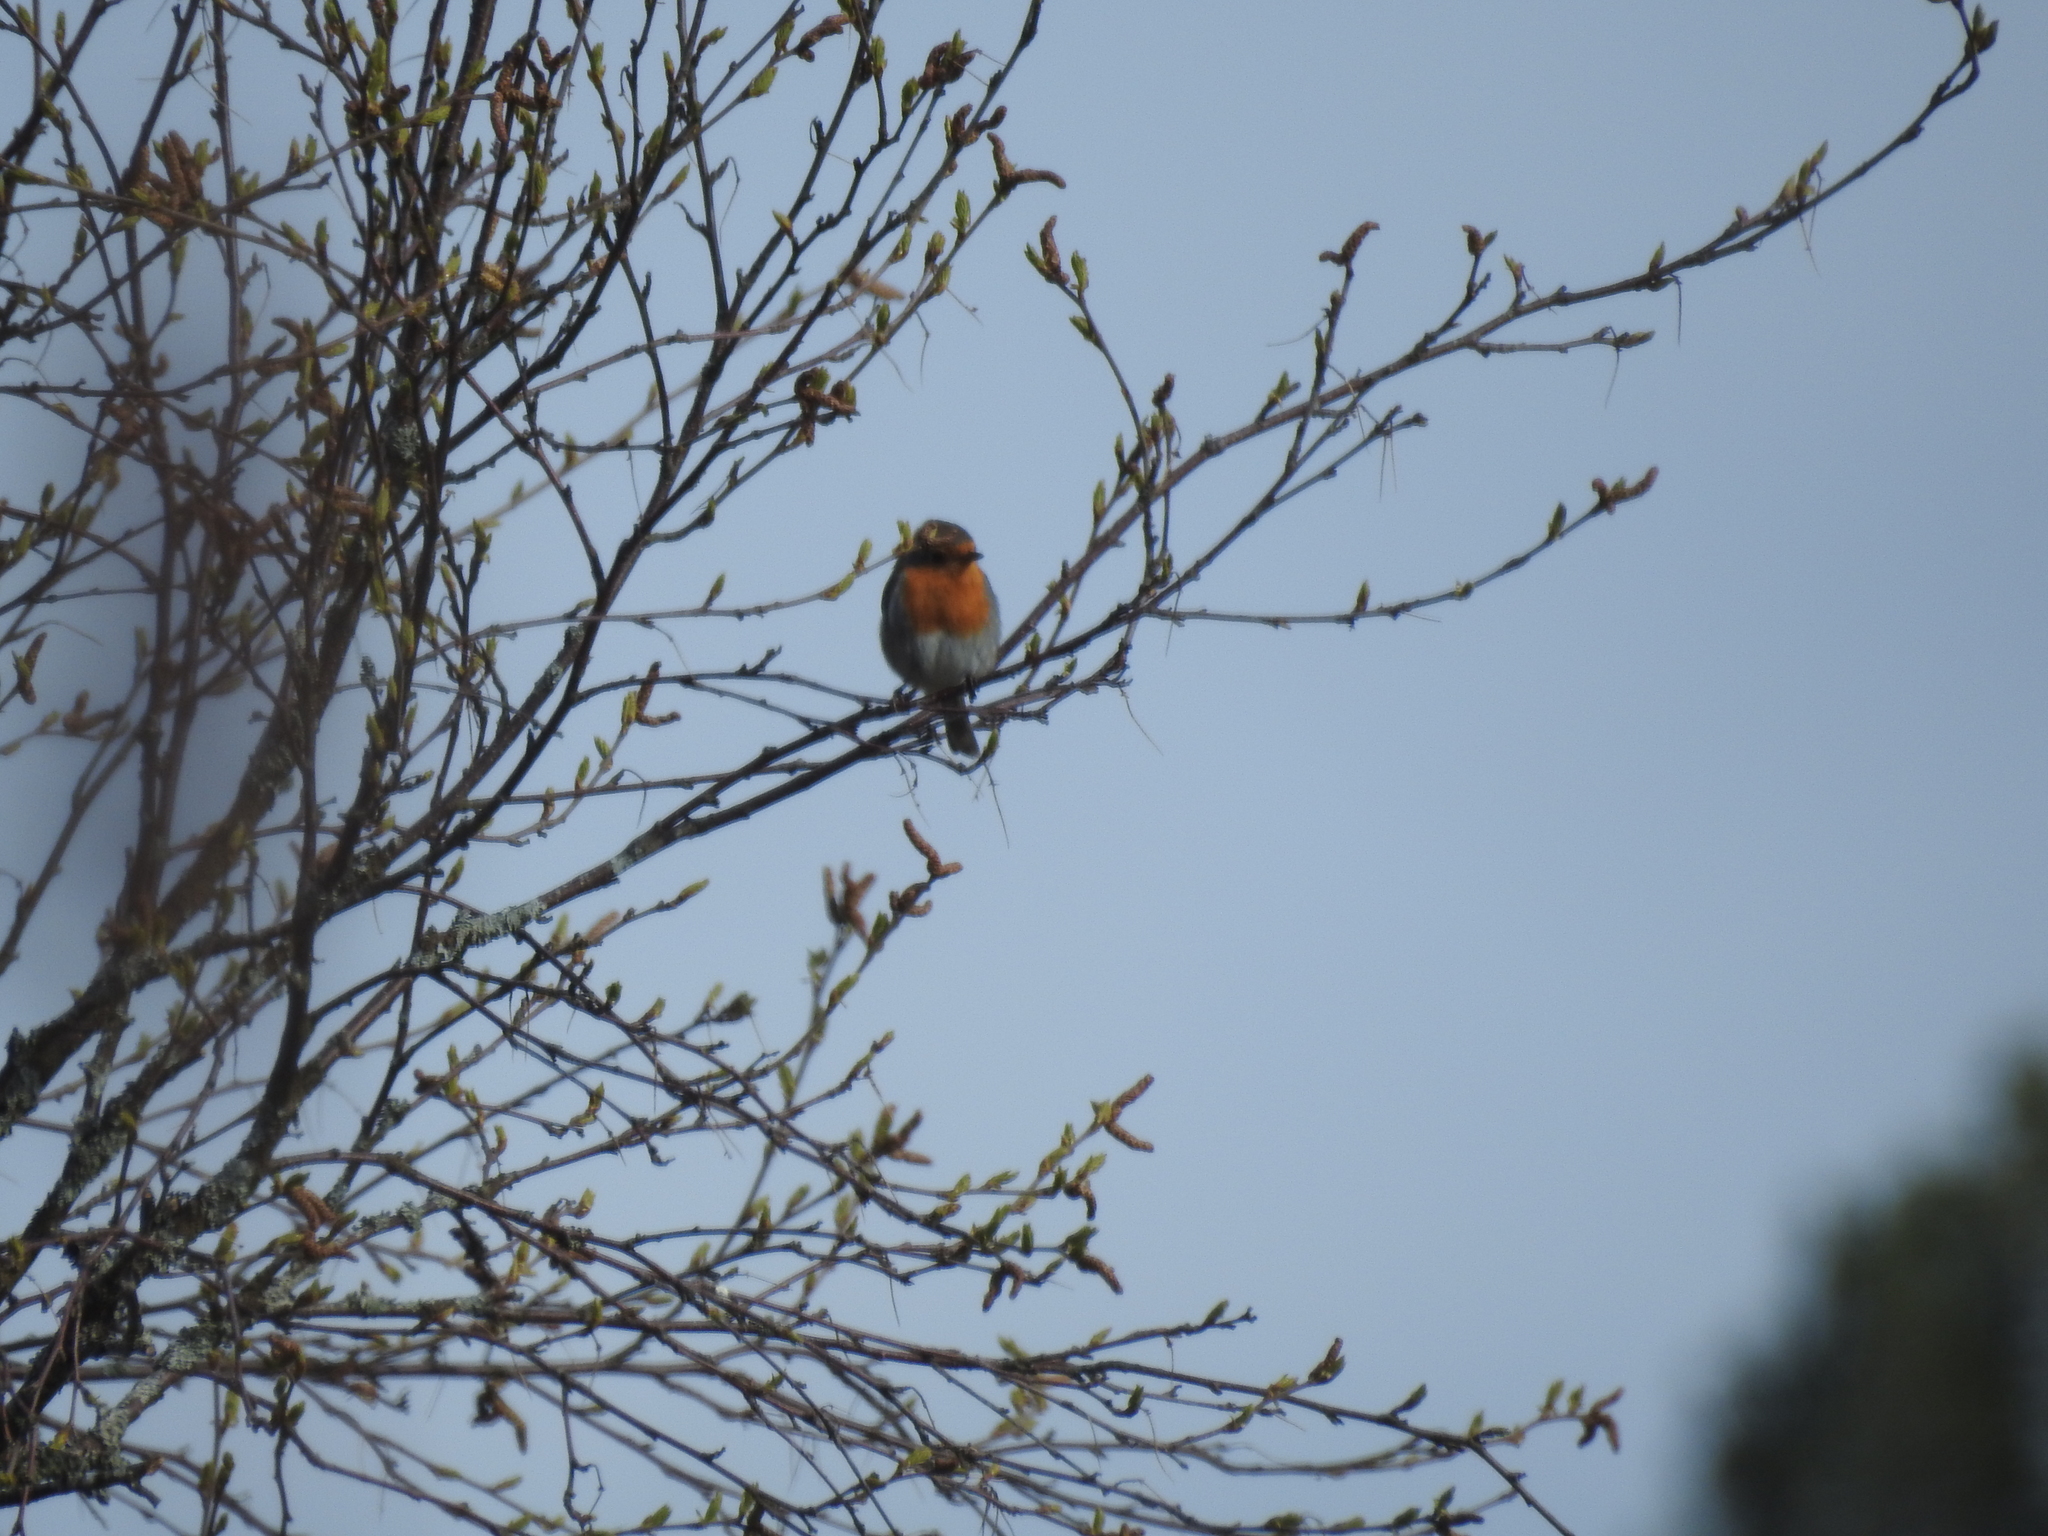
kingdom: Animalia
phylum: Chordata
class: Aves
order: Passeriformes
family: Muscicapidae
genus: Erithacus
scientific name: Erithacus rubecula
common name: European robin
